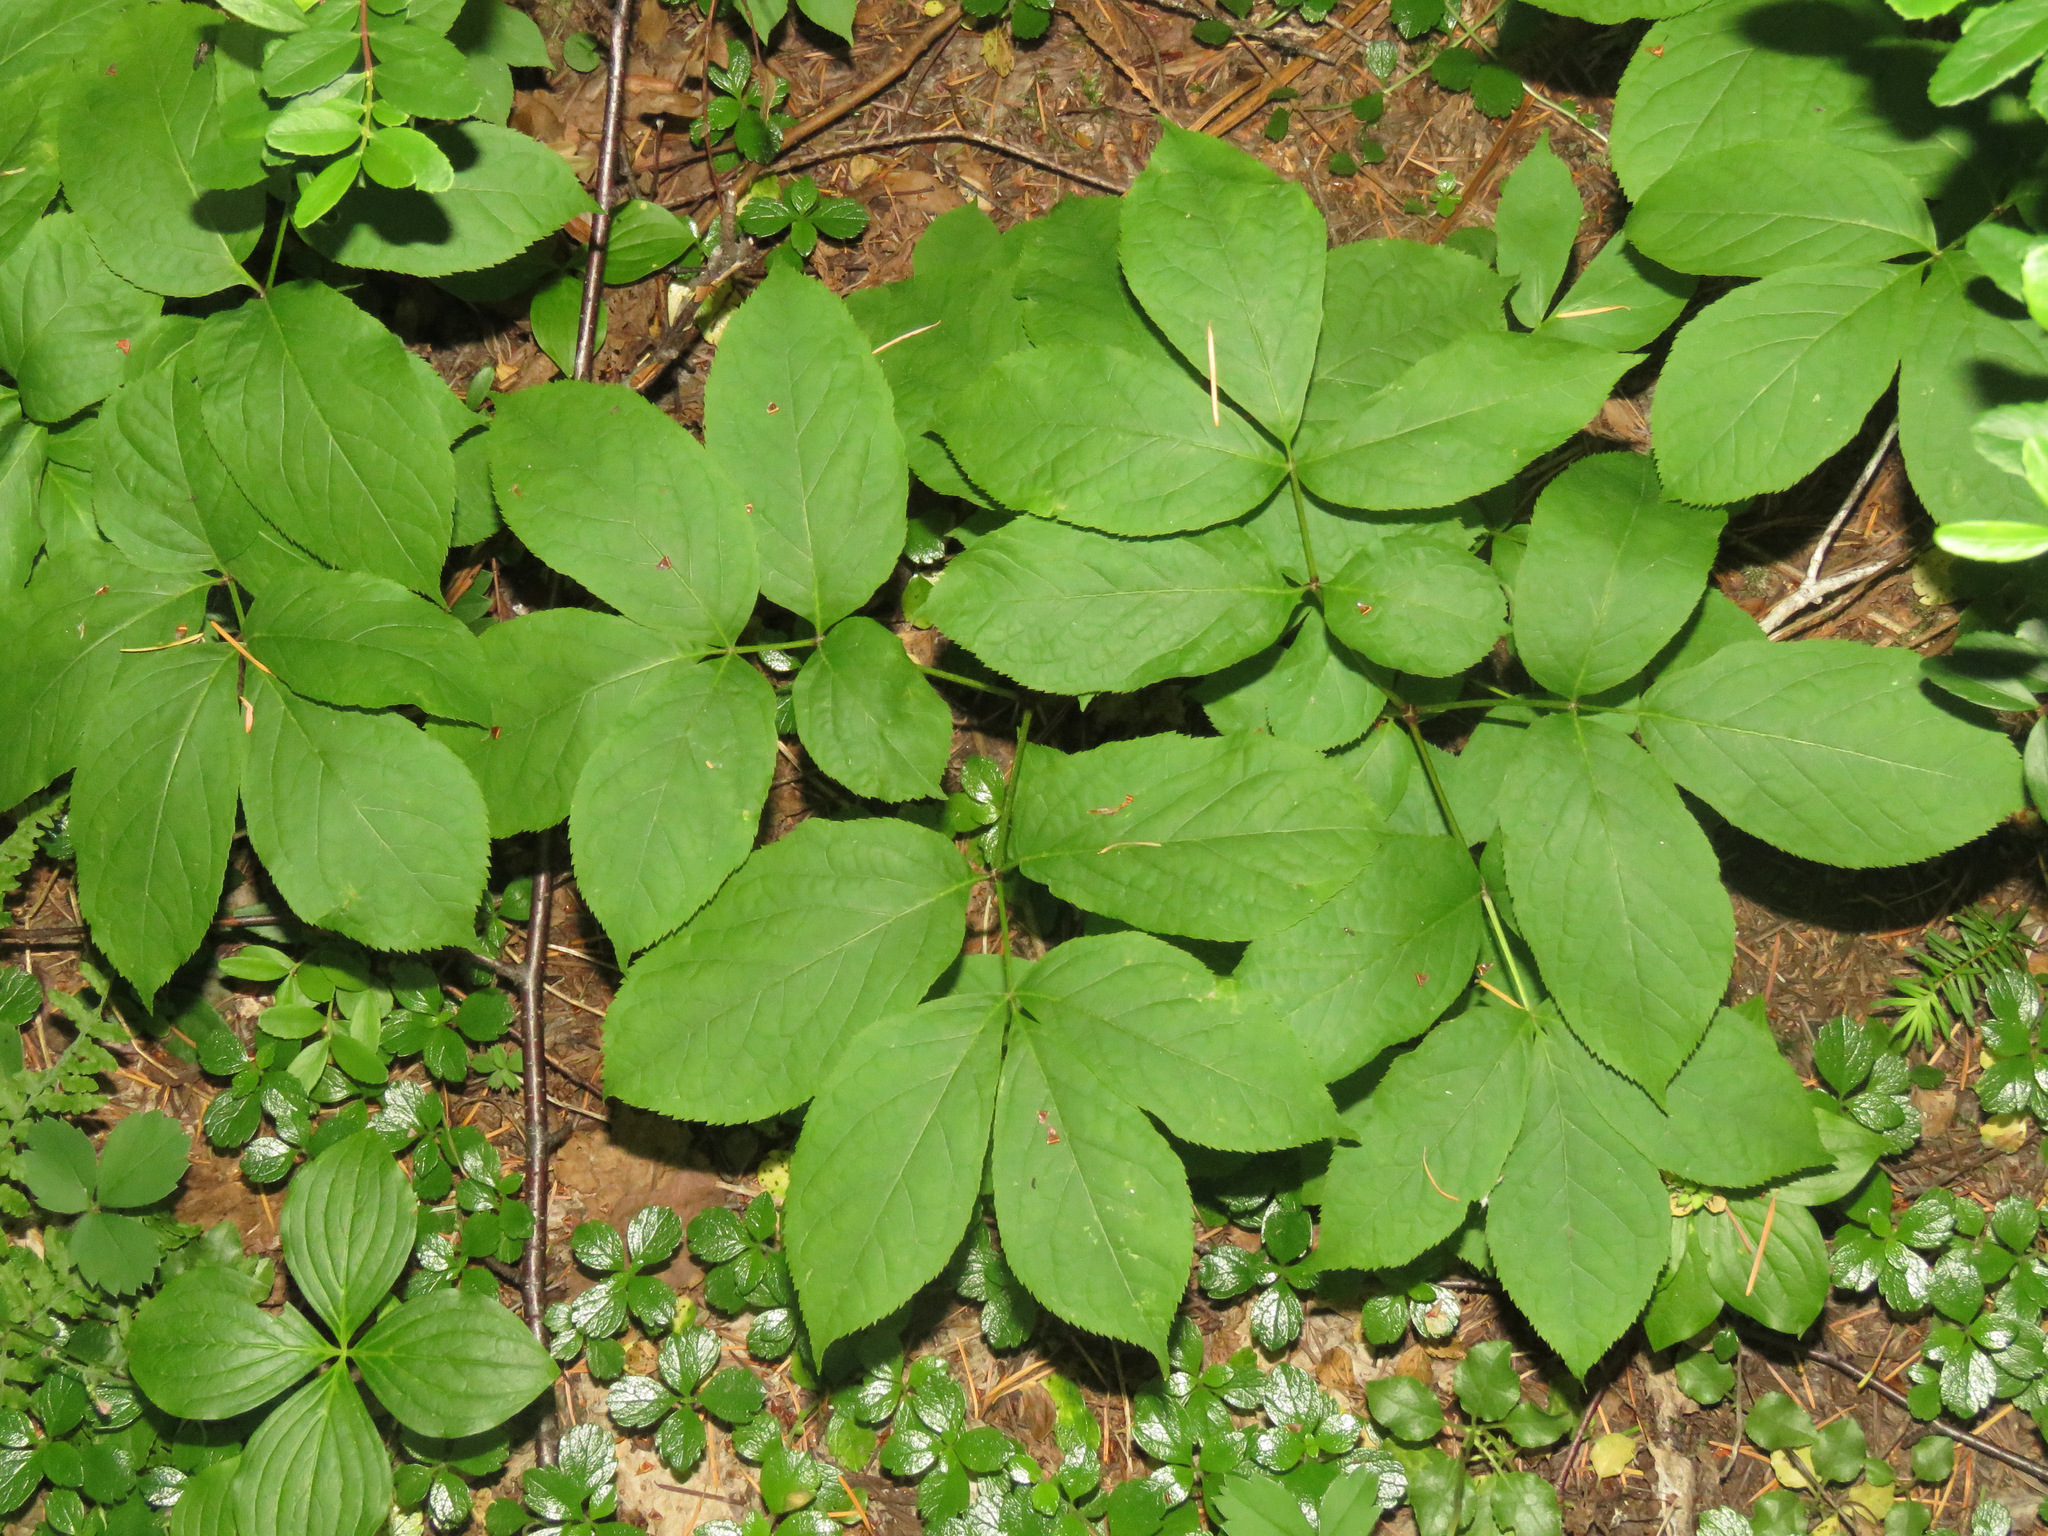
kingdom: Plantae
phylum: Tracheophyta
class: Magnoliopsida
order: Apiales
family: Araliaceae
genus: Aralia
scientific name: Aralia nudicaulis
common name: Wild sarsaparilla
